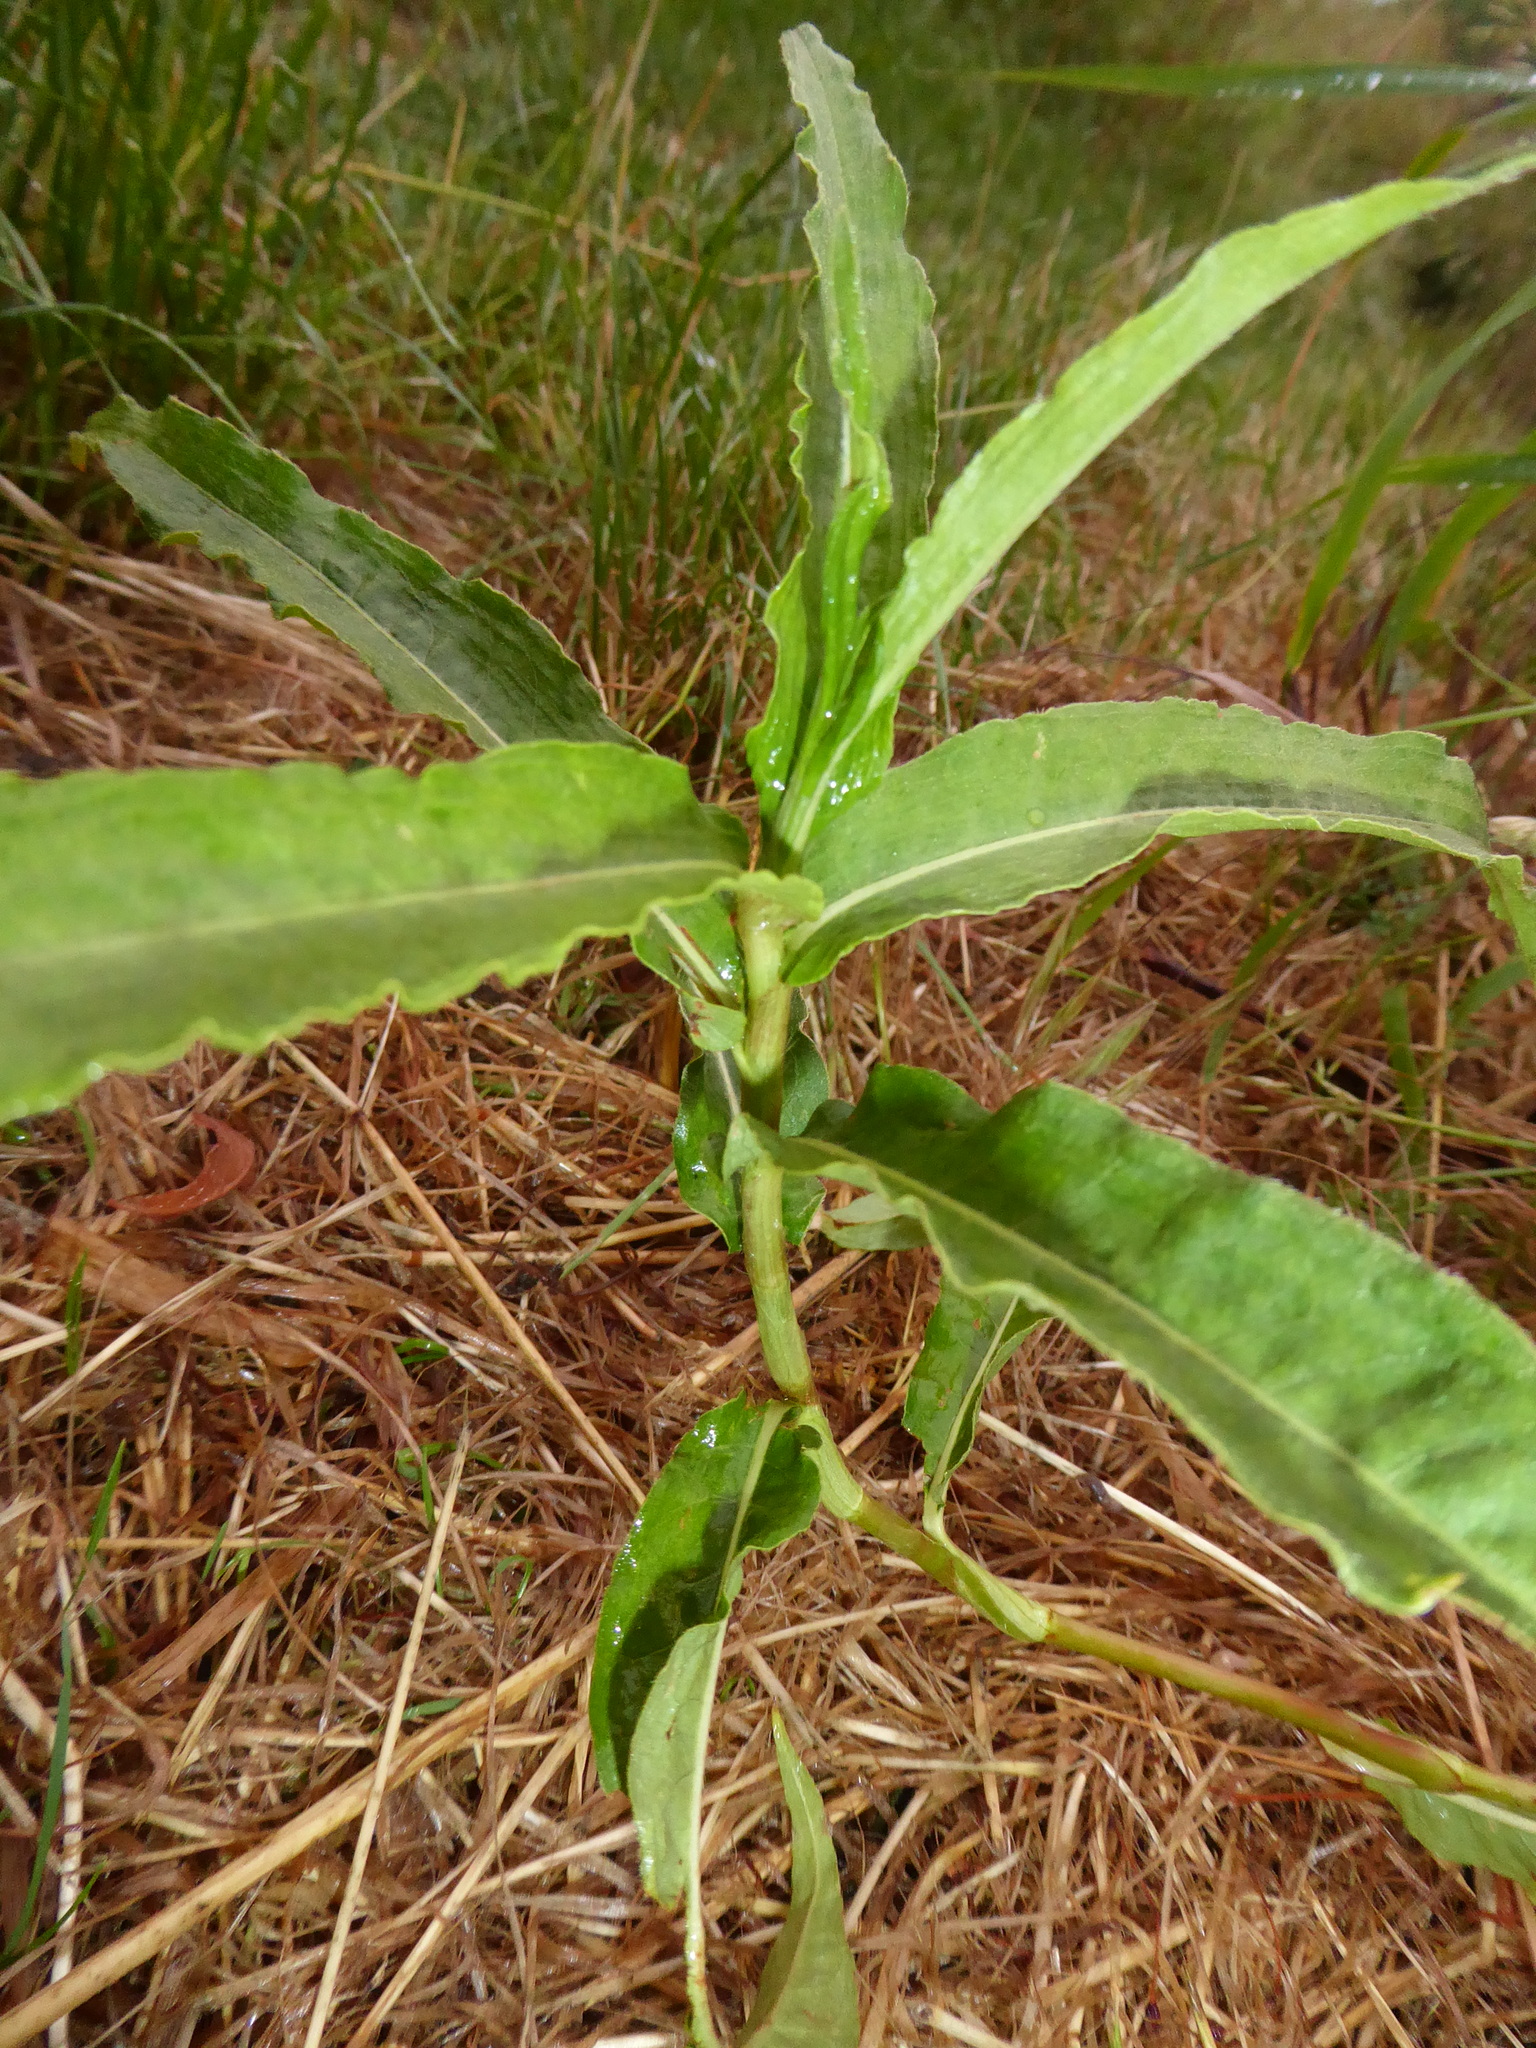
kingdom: Plantae
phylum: Tracheophyta
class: Magnoliopsida
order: Caryophyllales
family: Polygonaceae
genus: Persicaria
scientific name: Persicaria amphibia
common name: Amphibious bistort
